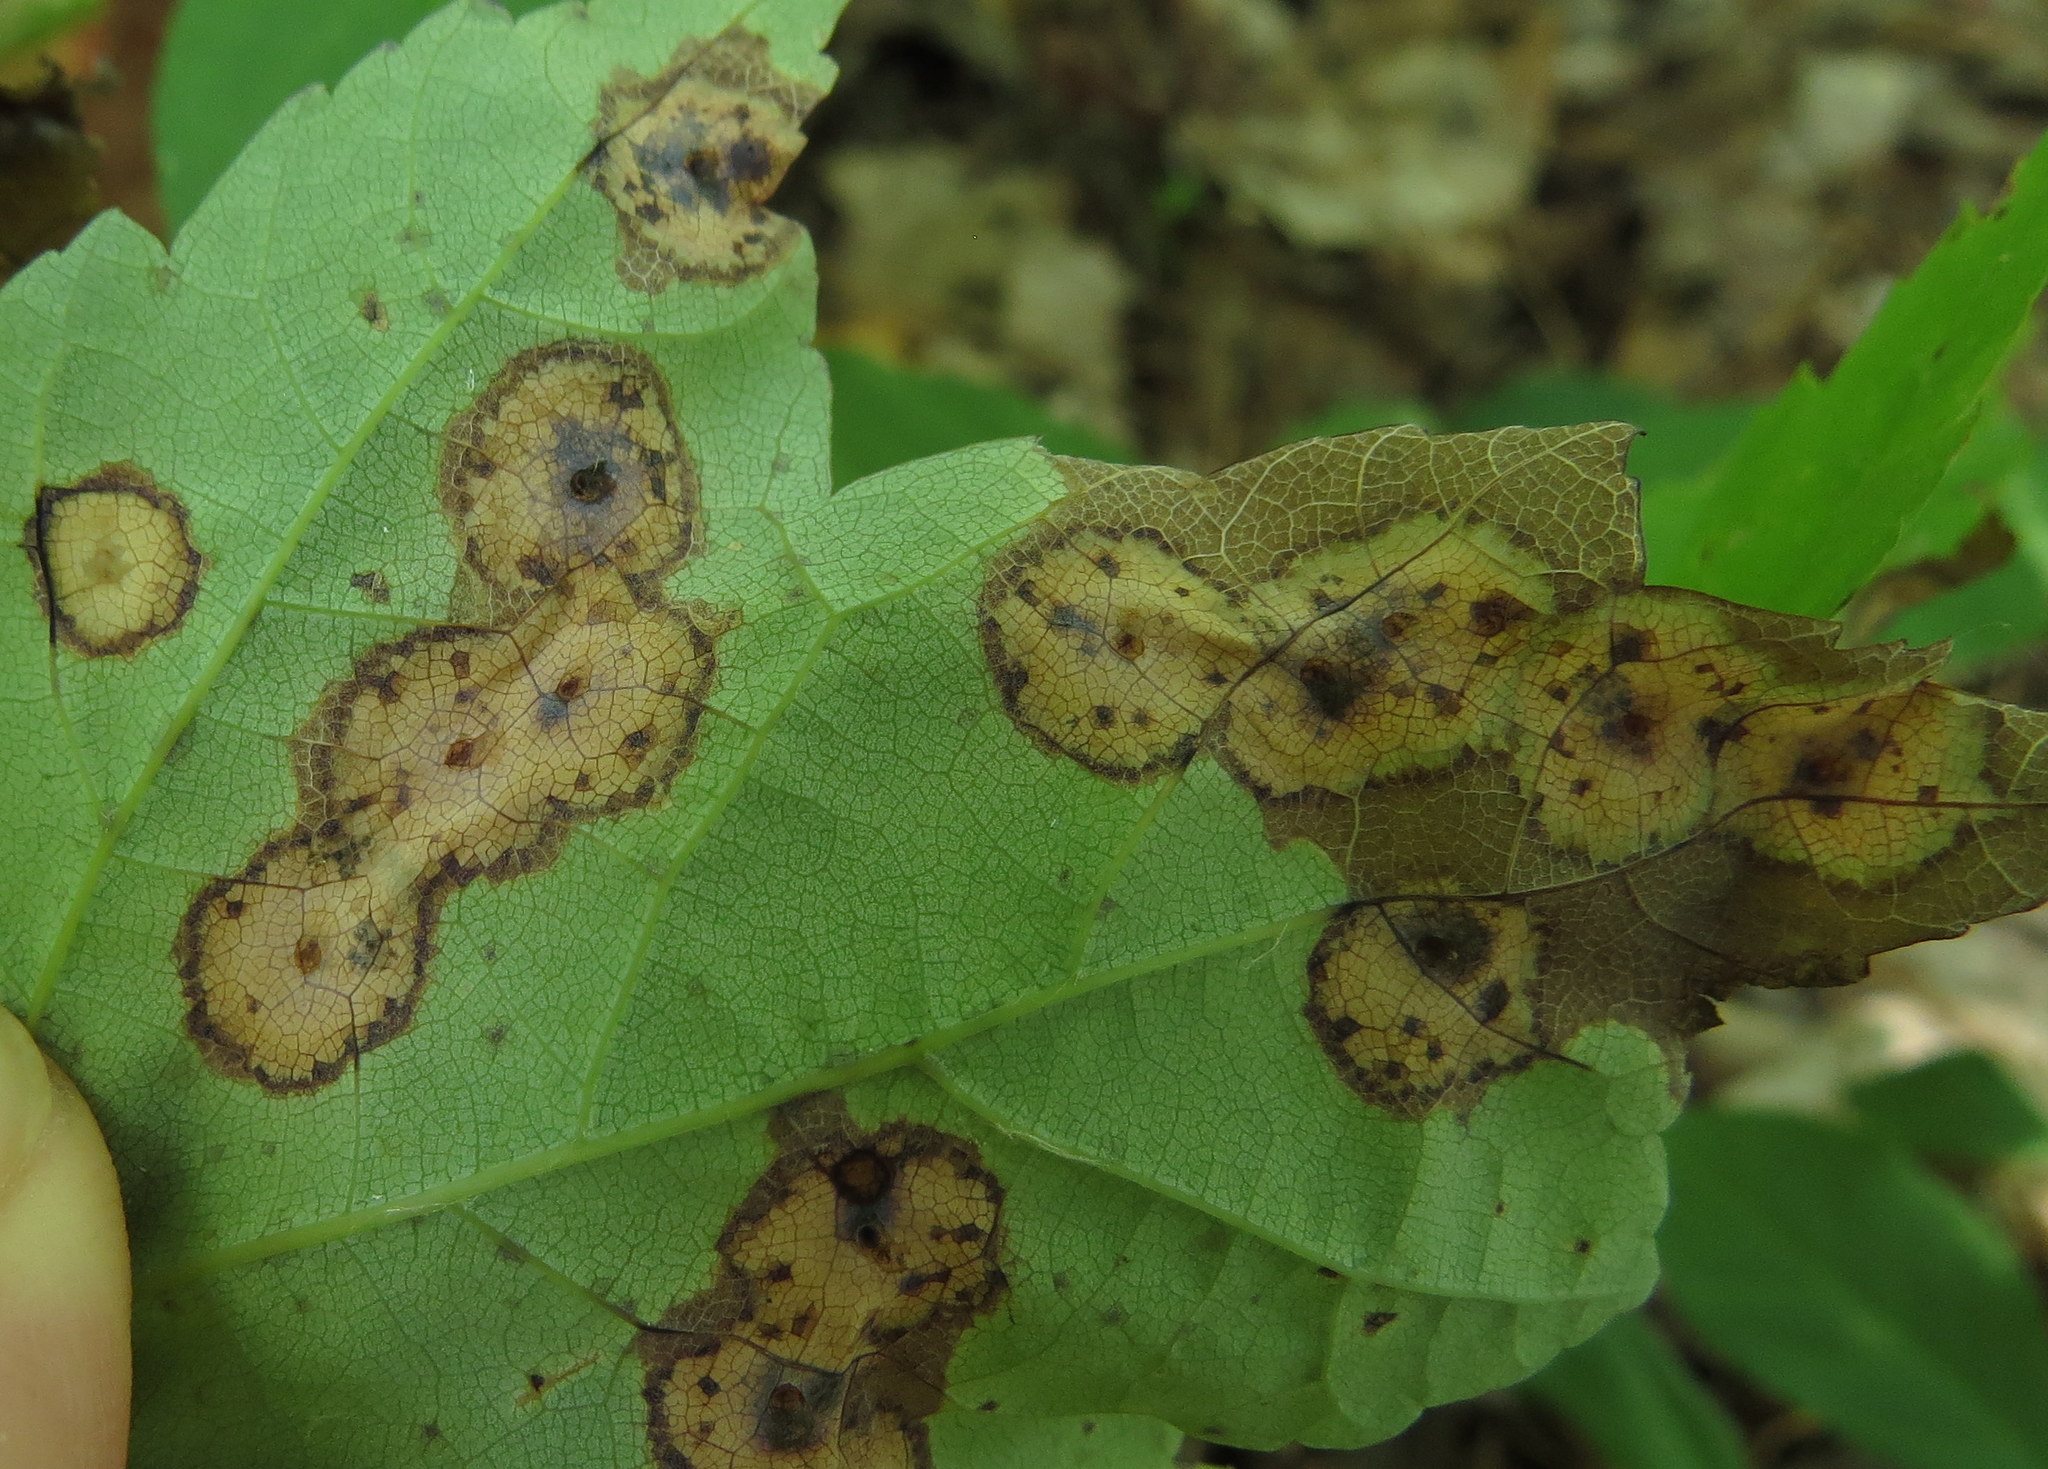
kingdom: Animalia
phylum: Arthropoda
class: Insecta
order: Diptera
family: Cecidomyiidae
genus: Acericecis
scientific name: Acericecis ocellaris
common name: Ocellate gall midge
